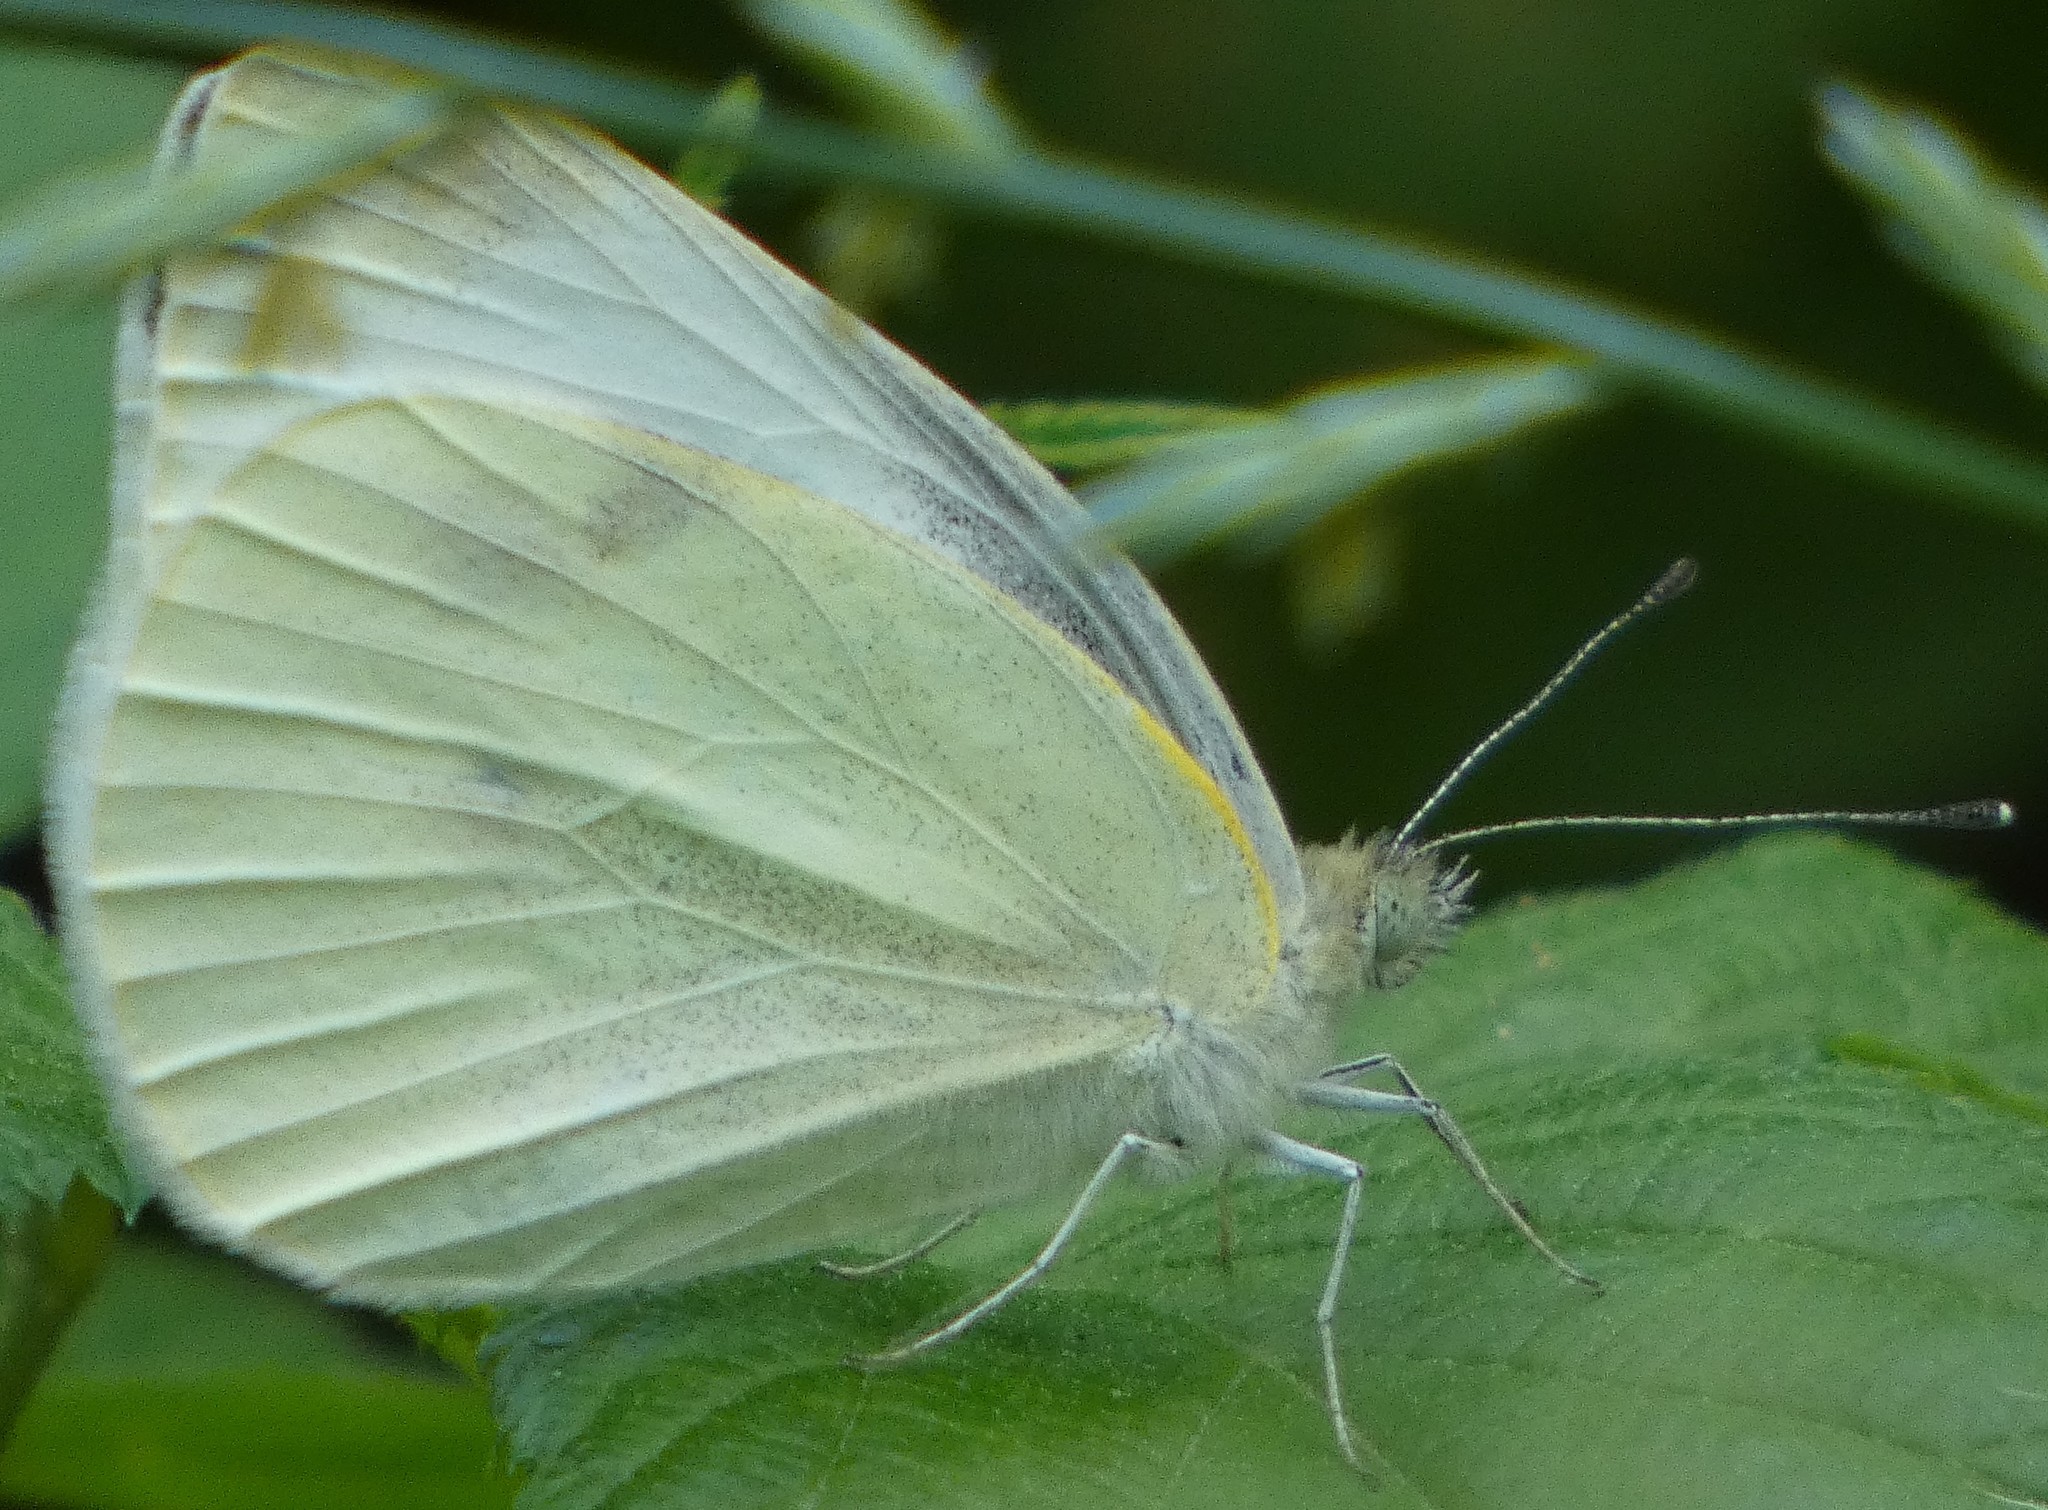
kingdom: Animalia
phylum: Arthropoda
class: Insecta
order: Lepidoptera
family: Pieridae
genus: Pieris
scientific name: Pieris rapae
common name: Small white
